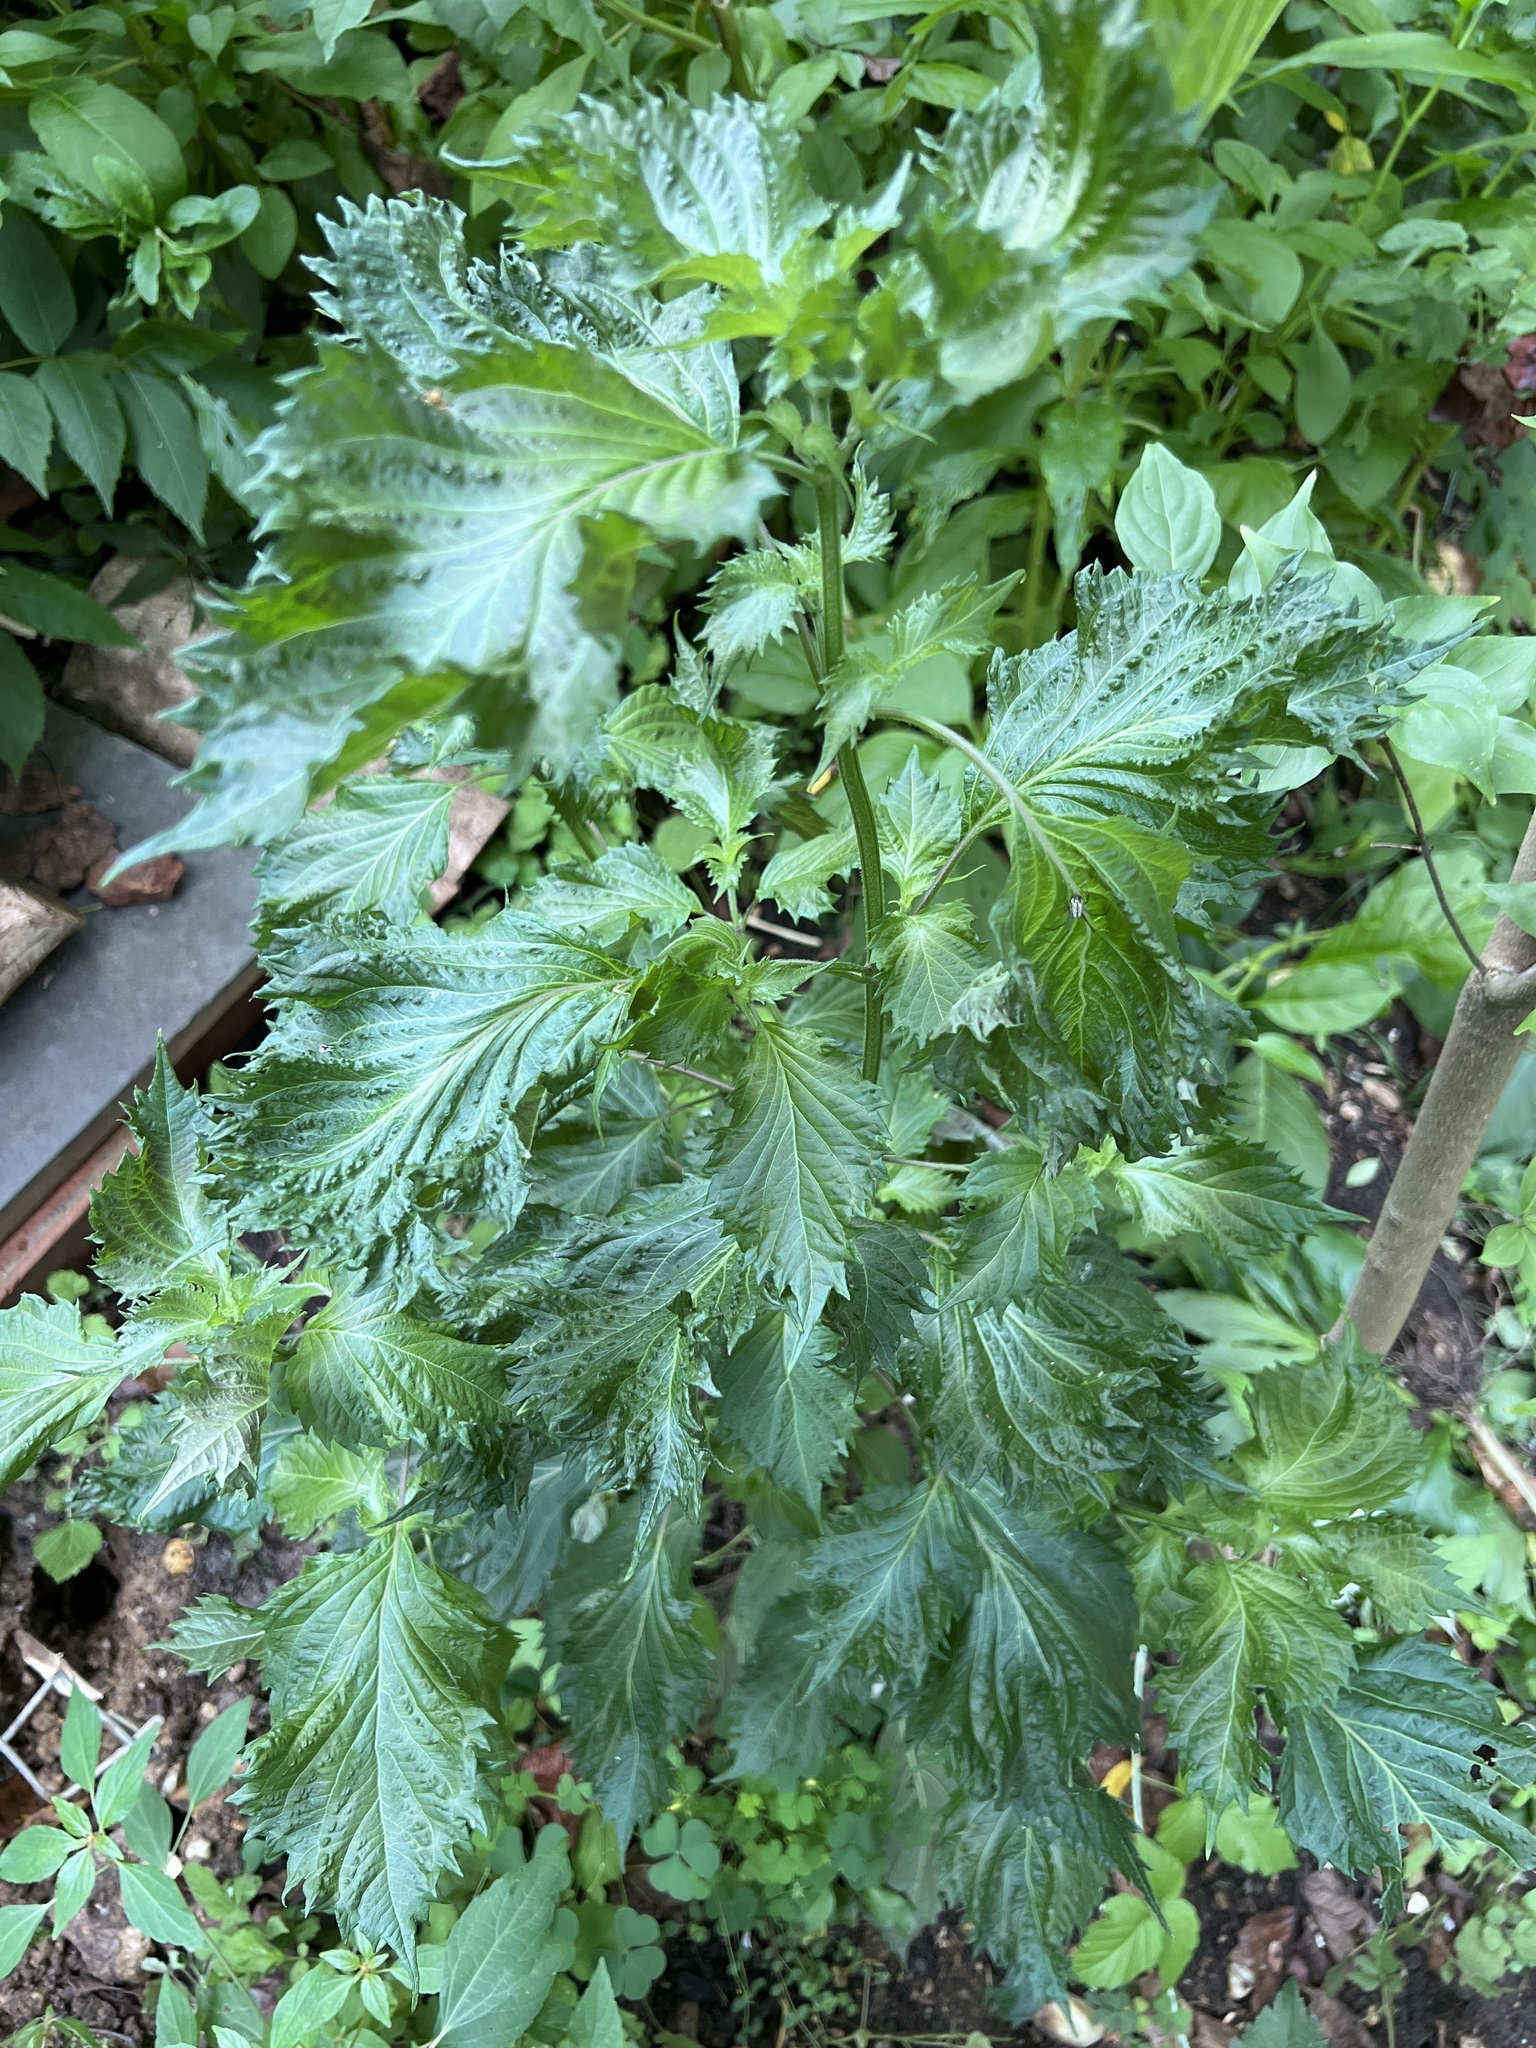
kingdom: Plantae
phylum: Tracheophyta
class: Magnoliopsida
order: Lamiales
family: Lamiaceae
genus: Perilla
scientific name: Perilla frutescens
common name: Perilla
